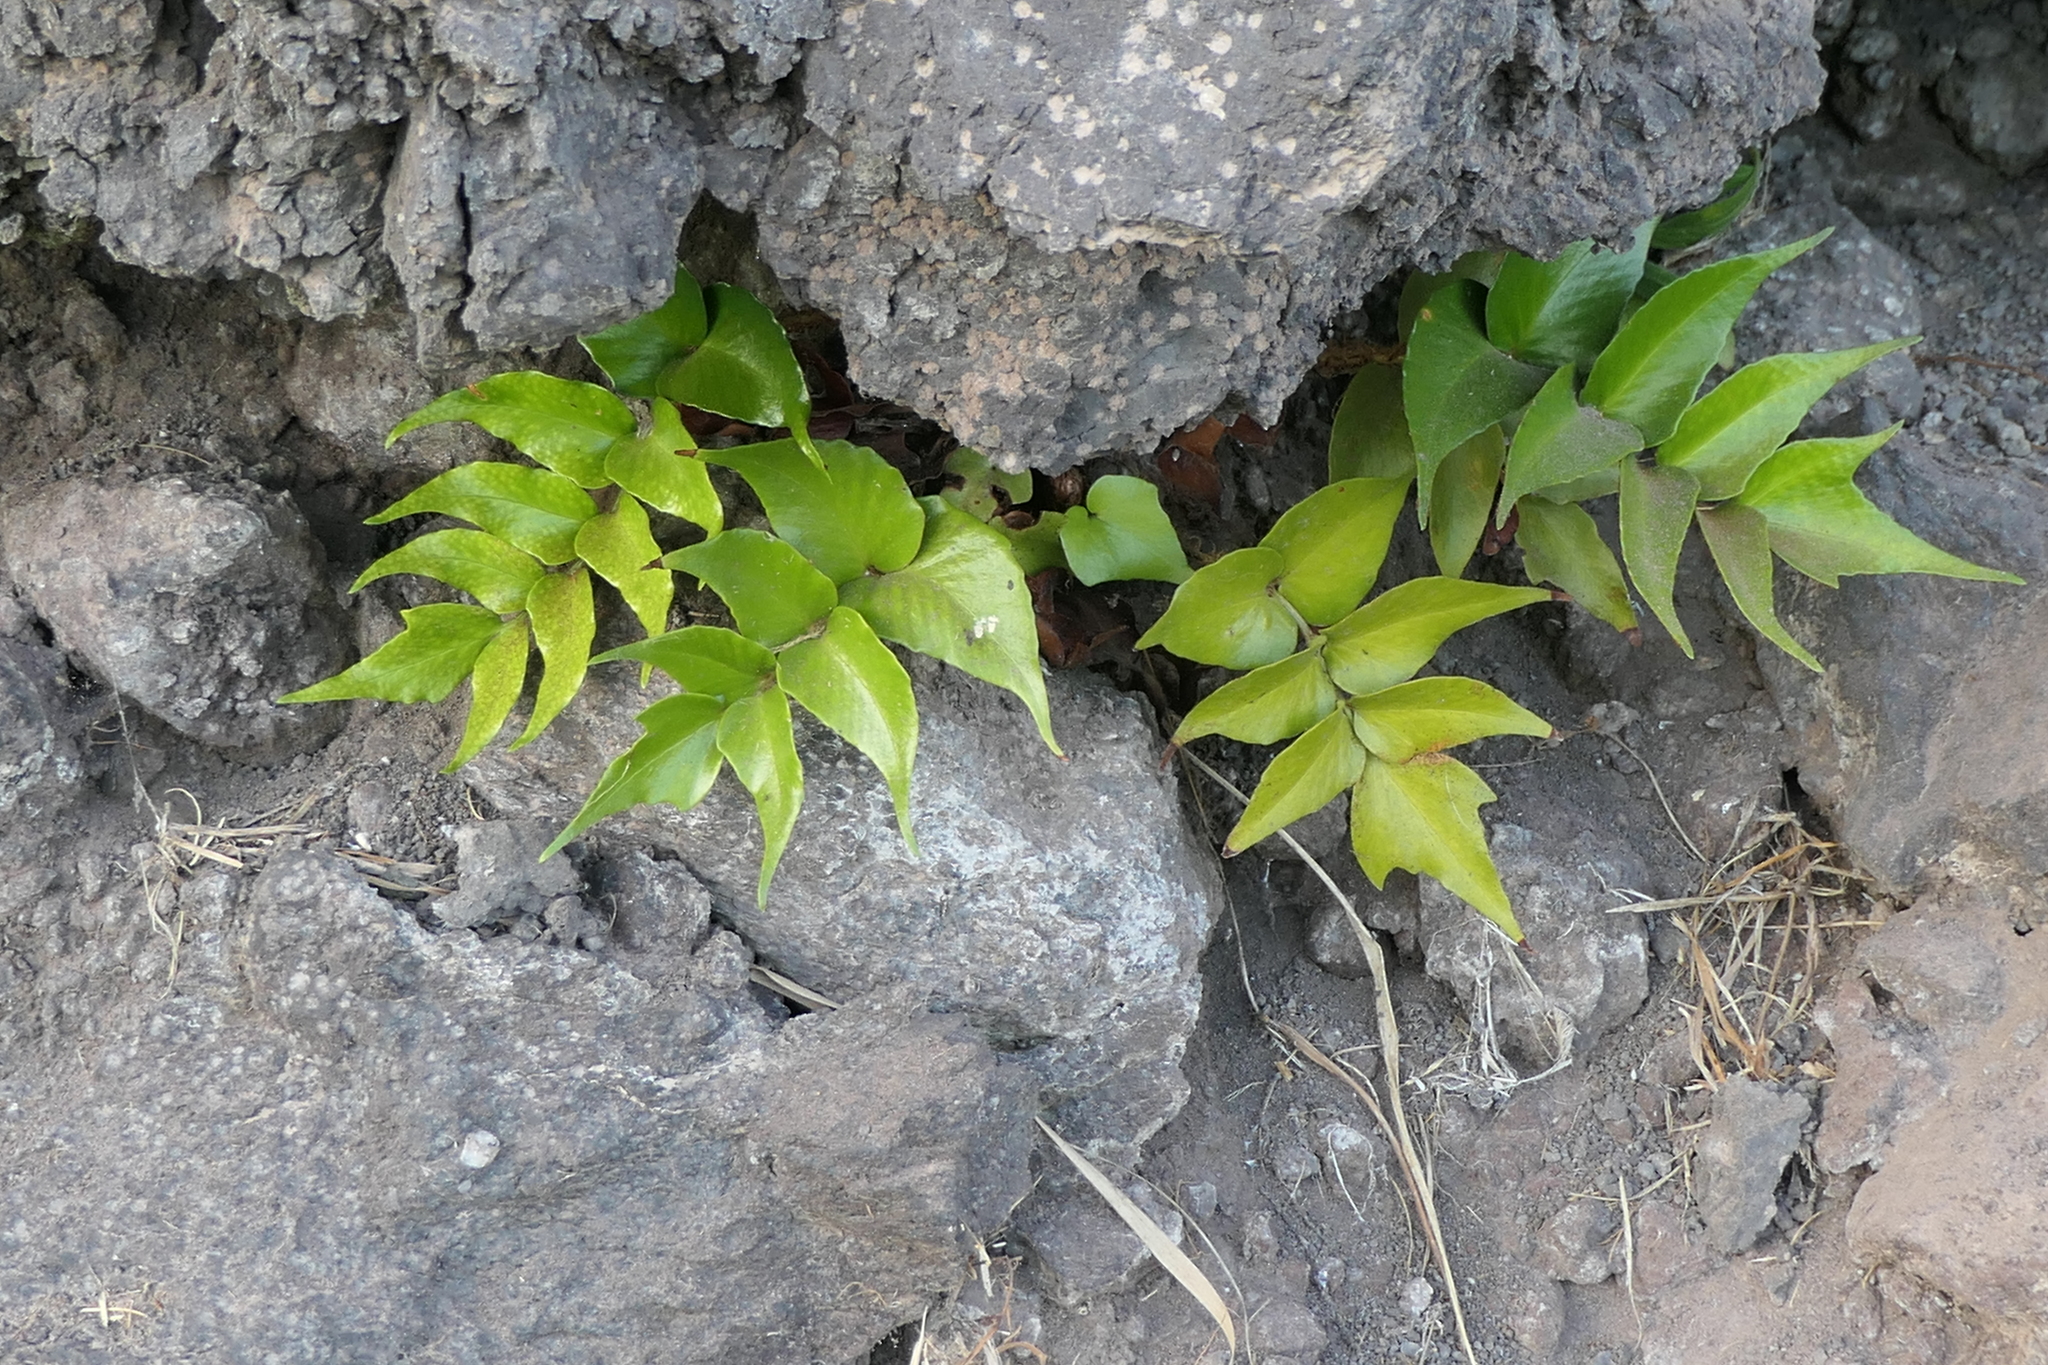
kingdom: Plantae
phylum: Tracheophyta
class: Polypodiopsida
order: Polypodiales
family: Dryopteridaceae
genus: Cyrtomium
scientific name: Cyrtomium falcatum
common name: House holly-fern
